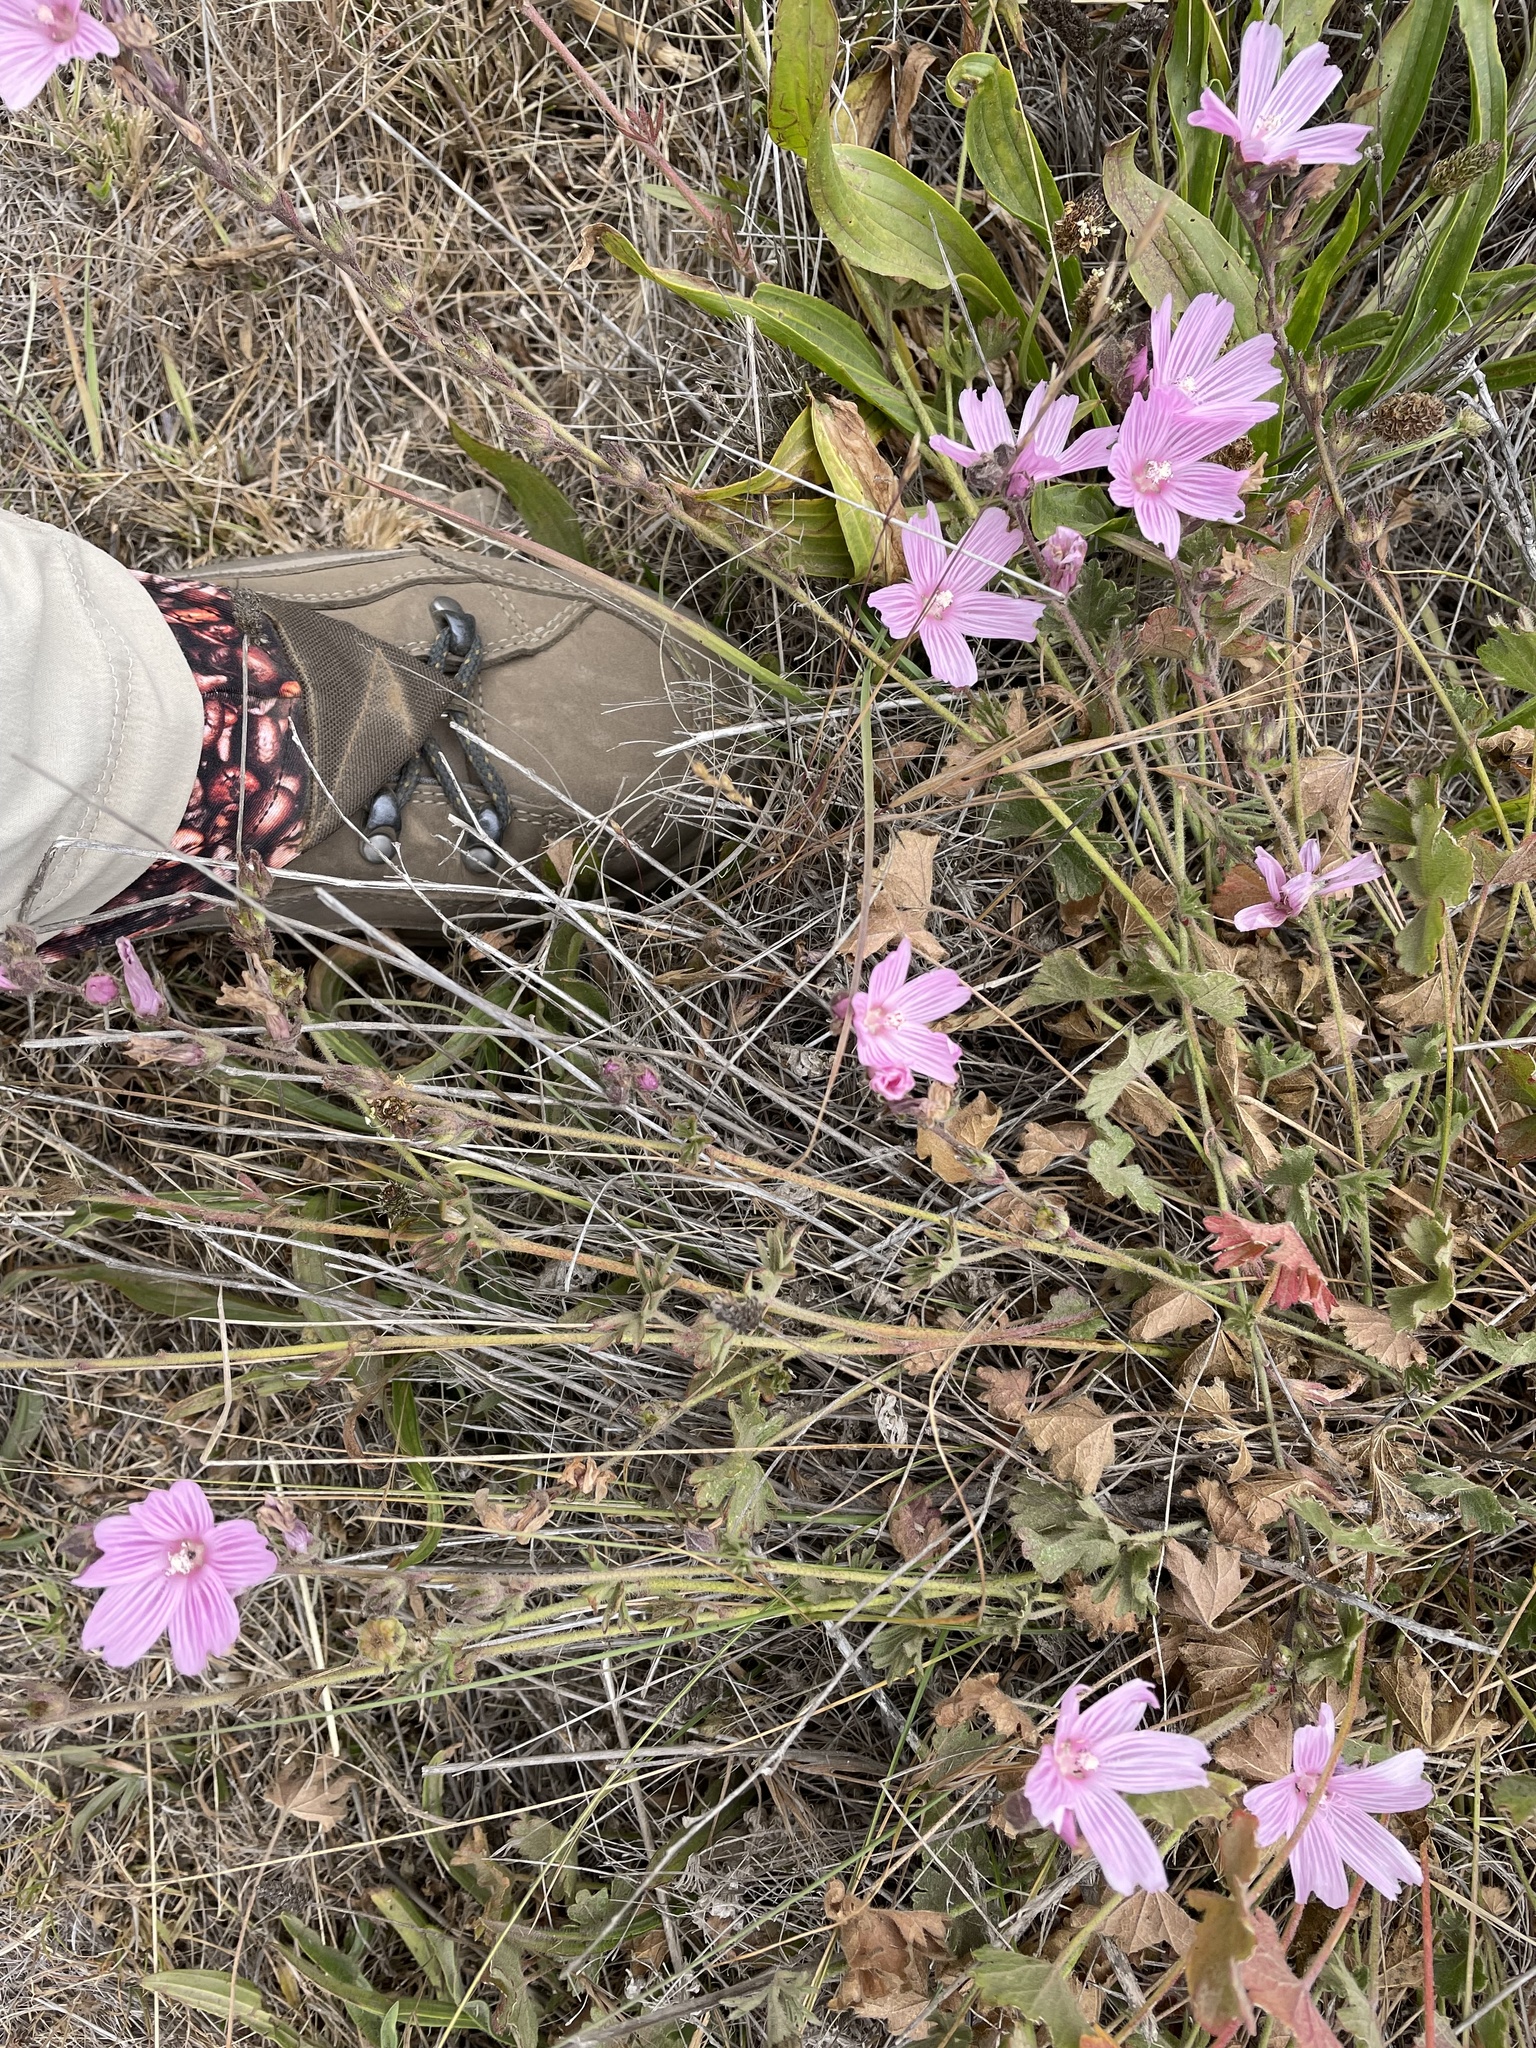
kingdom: Plantae
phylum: Tracheophyta
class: Magnoliopsida
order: Malvales
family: Malvaceae
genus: Sidalcea
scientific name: Sidalcea malviflora
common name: Greek mallow
